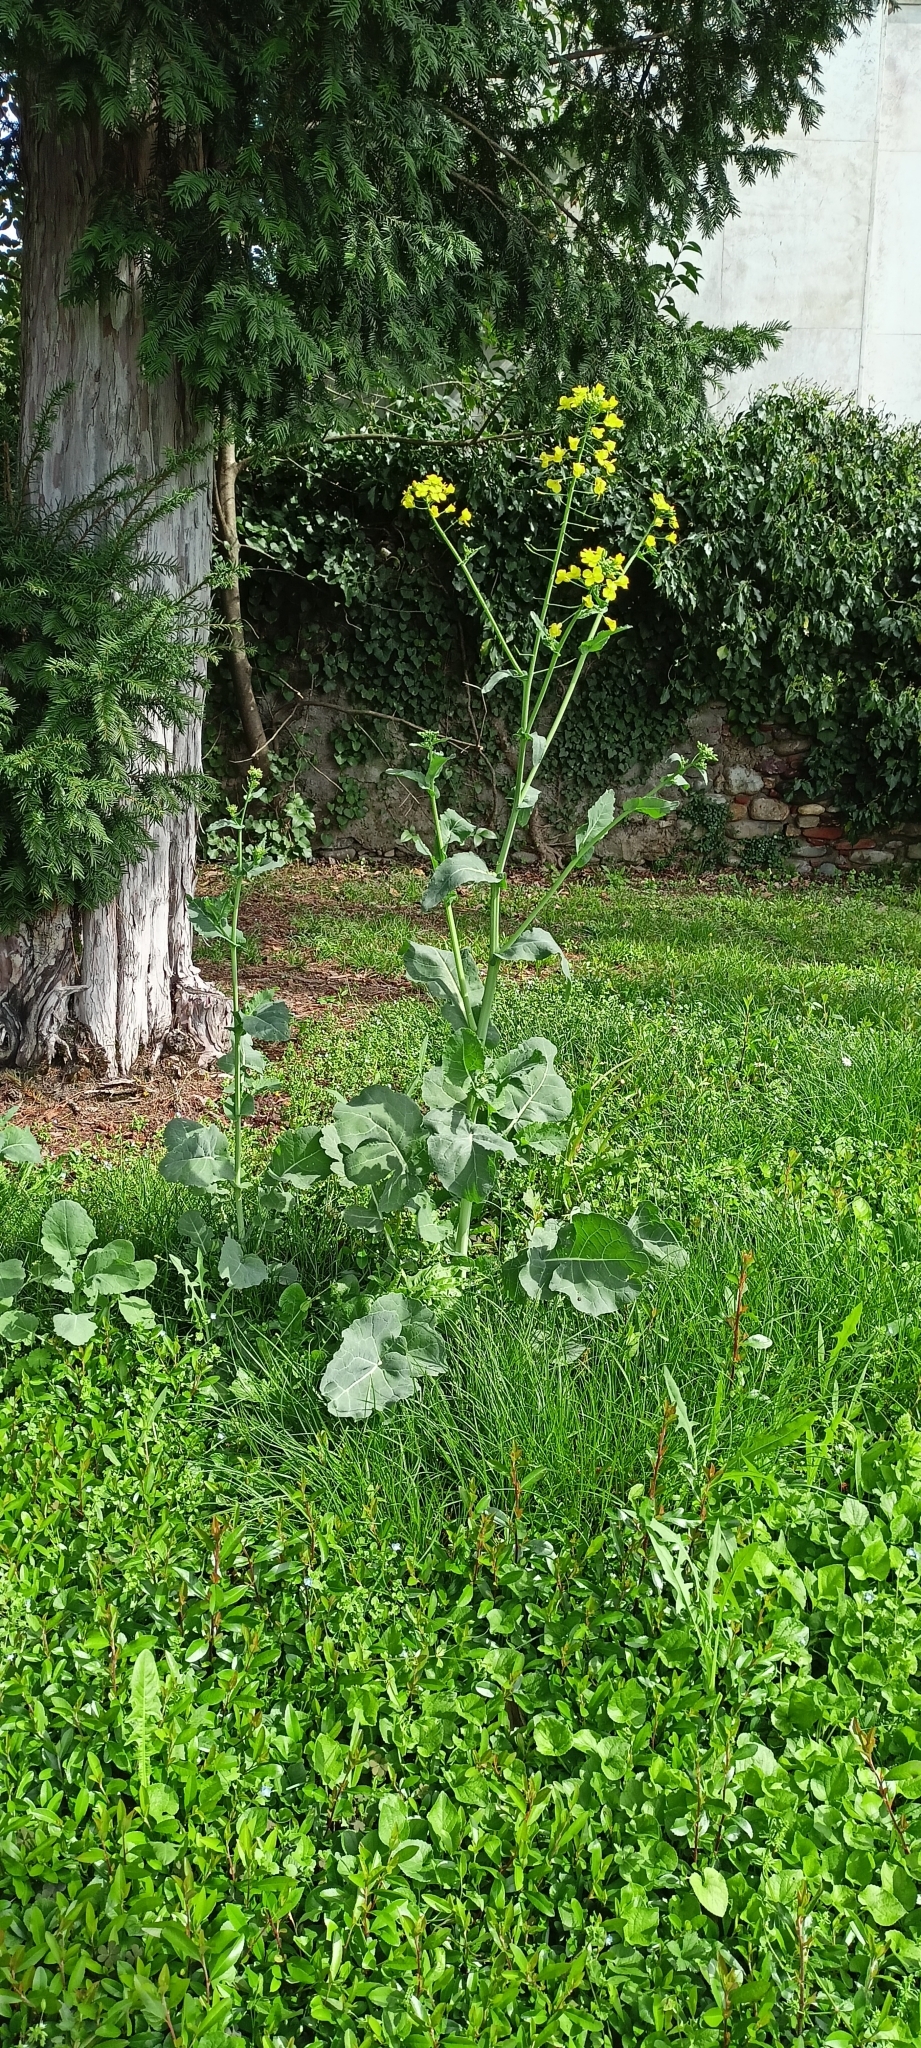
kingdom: Plantae
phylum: Tracheophyta
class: Magnoliopsida
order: Brassicales
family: Brassicaceae
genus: Brassica
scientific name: Brassica napus
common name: Rape
